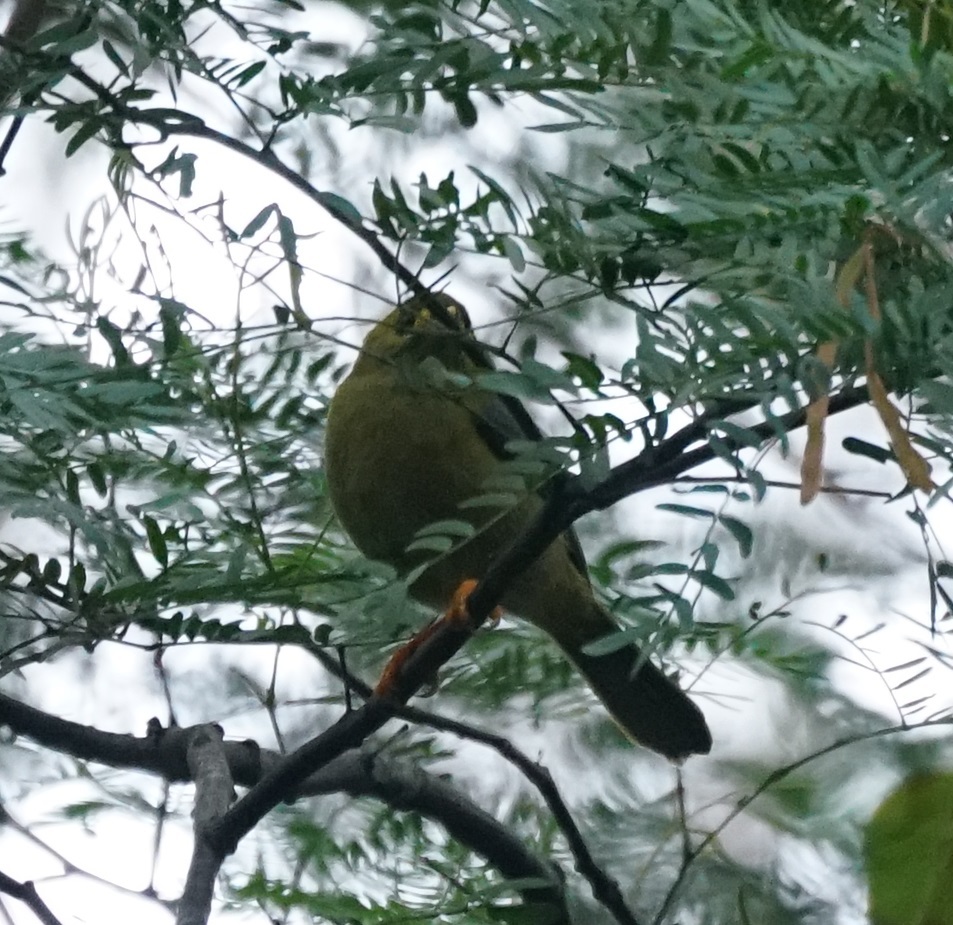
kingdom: Animalia
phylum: Chordata
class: Aves
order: Passeriformes
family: Meliphagidae
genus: Manorina
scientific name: Manorina melanophrys
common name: Bell miner
